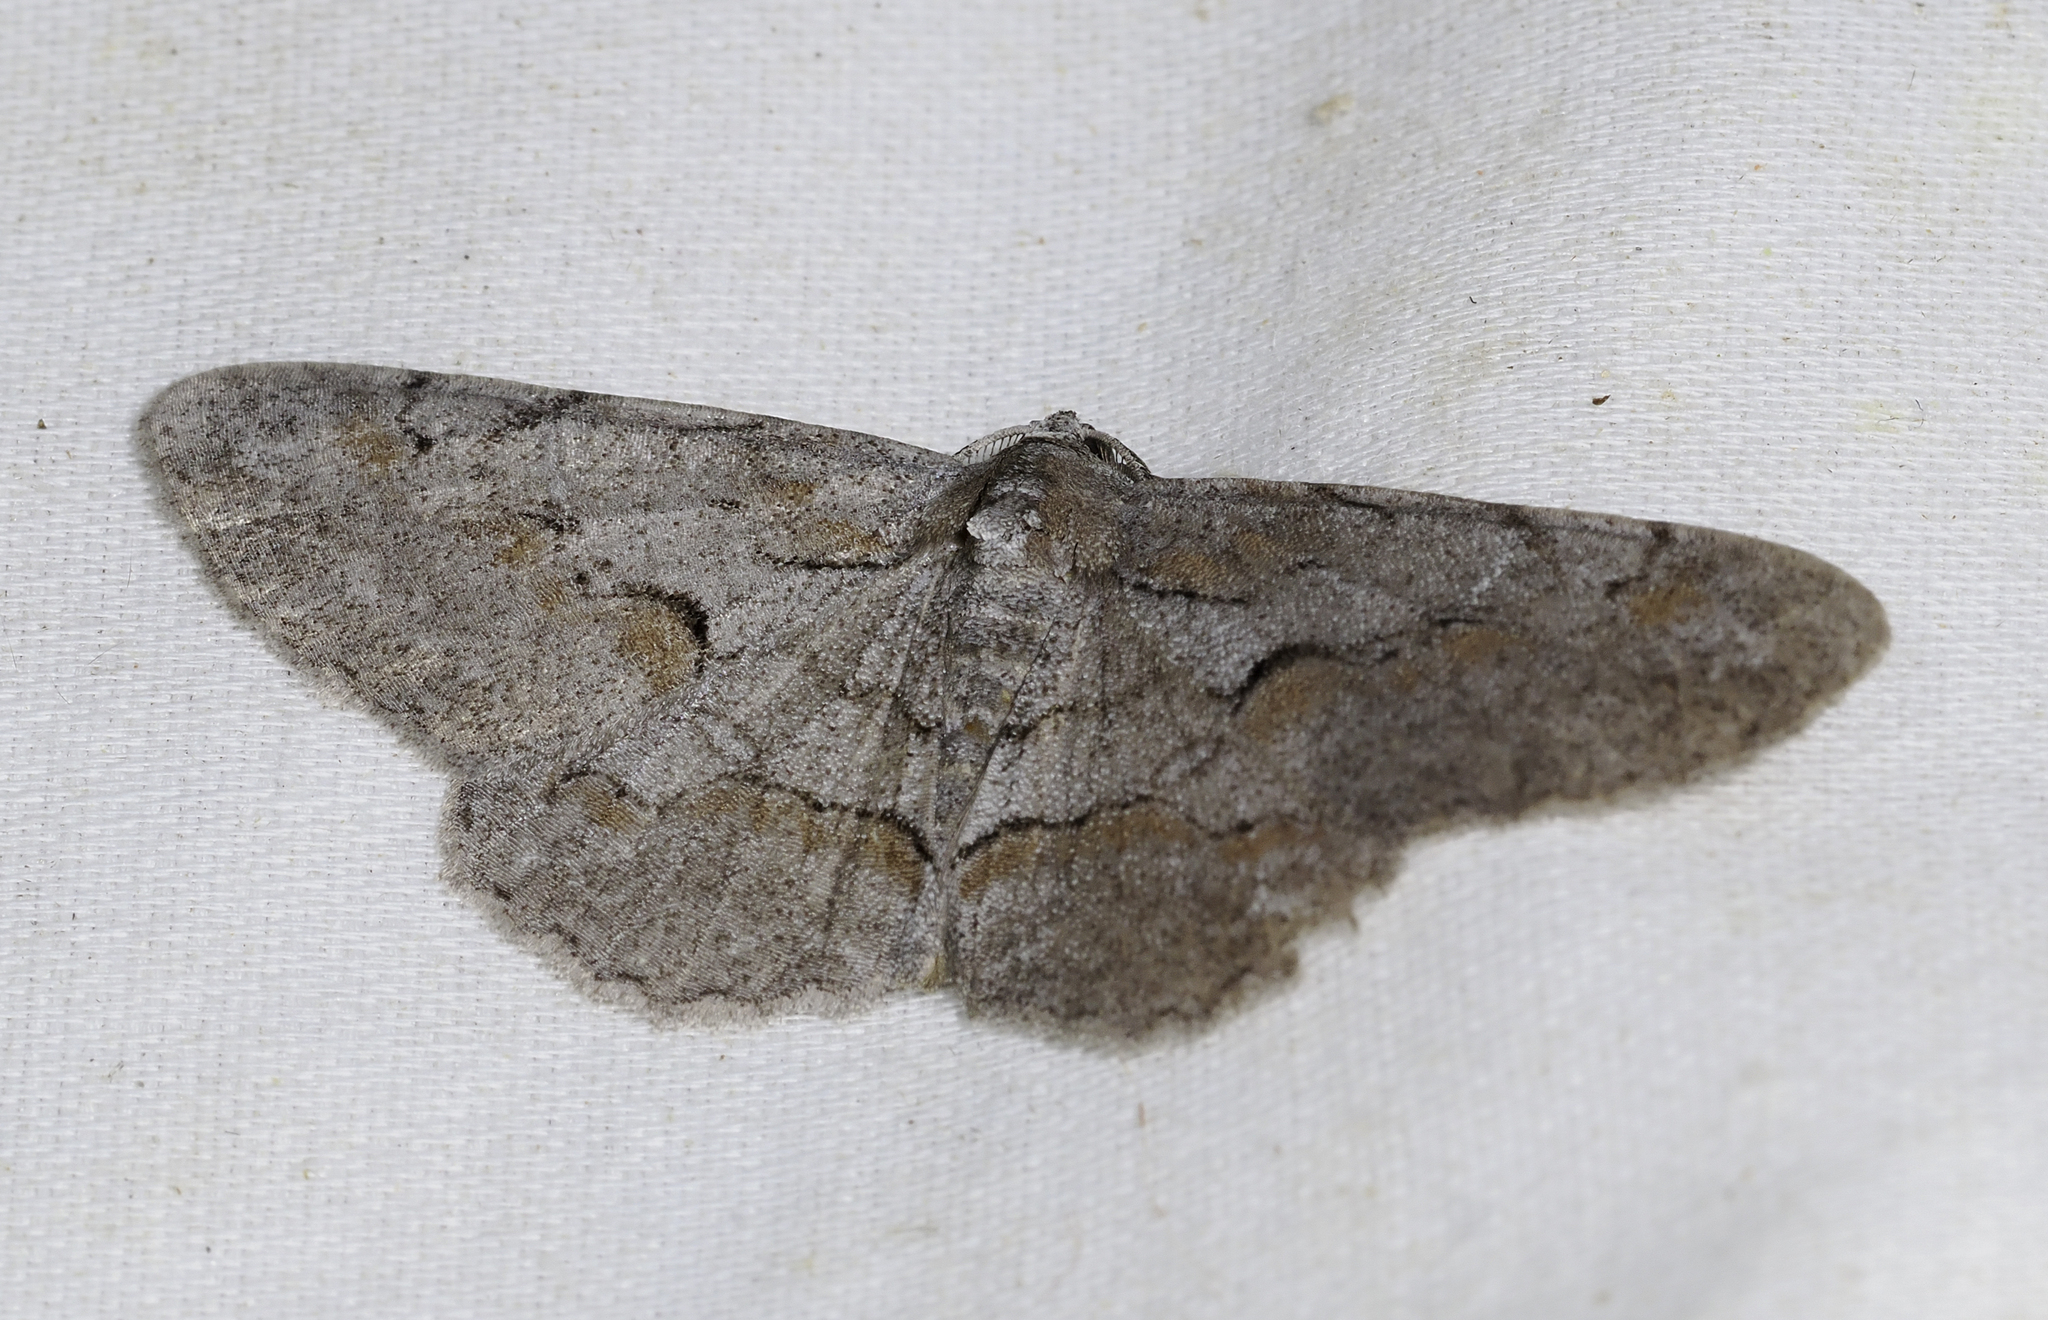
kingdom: Animalia
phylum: Arthropoda
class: Insecta
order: Lepidoptera
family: Geometridae
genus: Iridopsis
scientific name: Iridopsis vellivolata
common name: Large purplish gray
